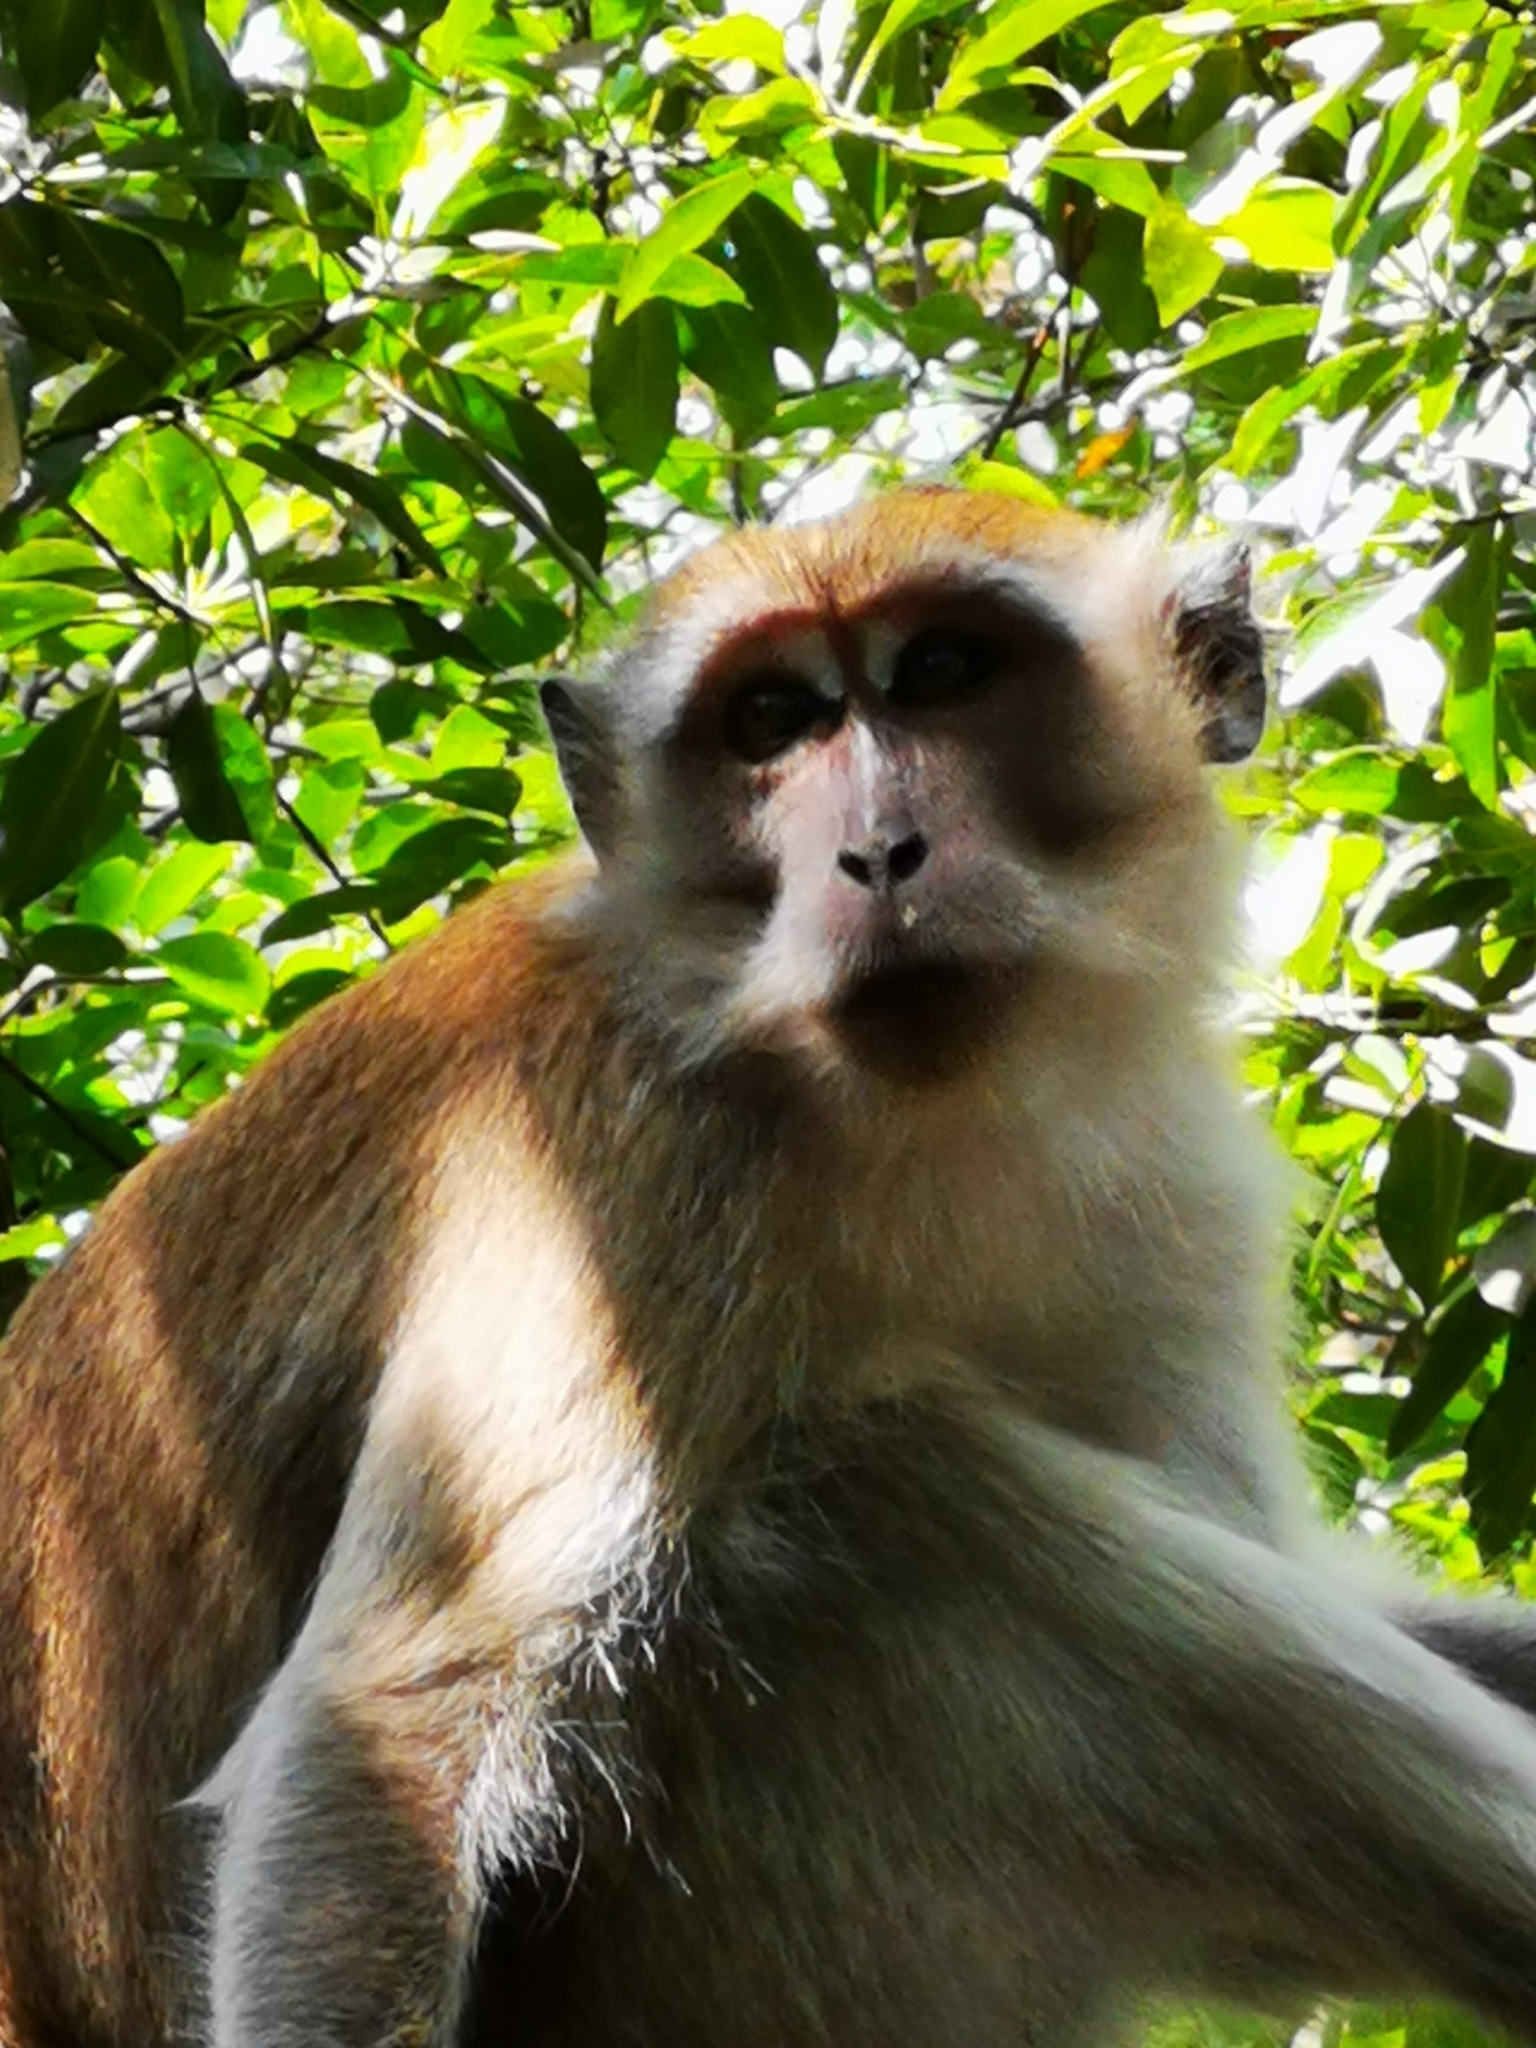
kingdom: Animalia
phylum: Chordata
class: Mammalia
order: Primates
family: Cercopithecidae
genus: Macaca
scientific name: Macaca fascicularis
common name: Crab-eating macaque
